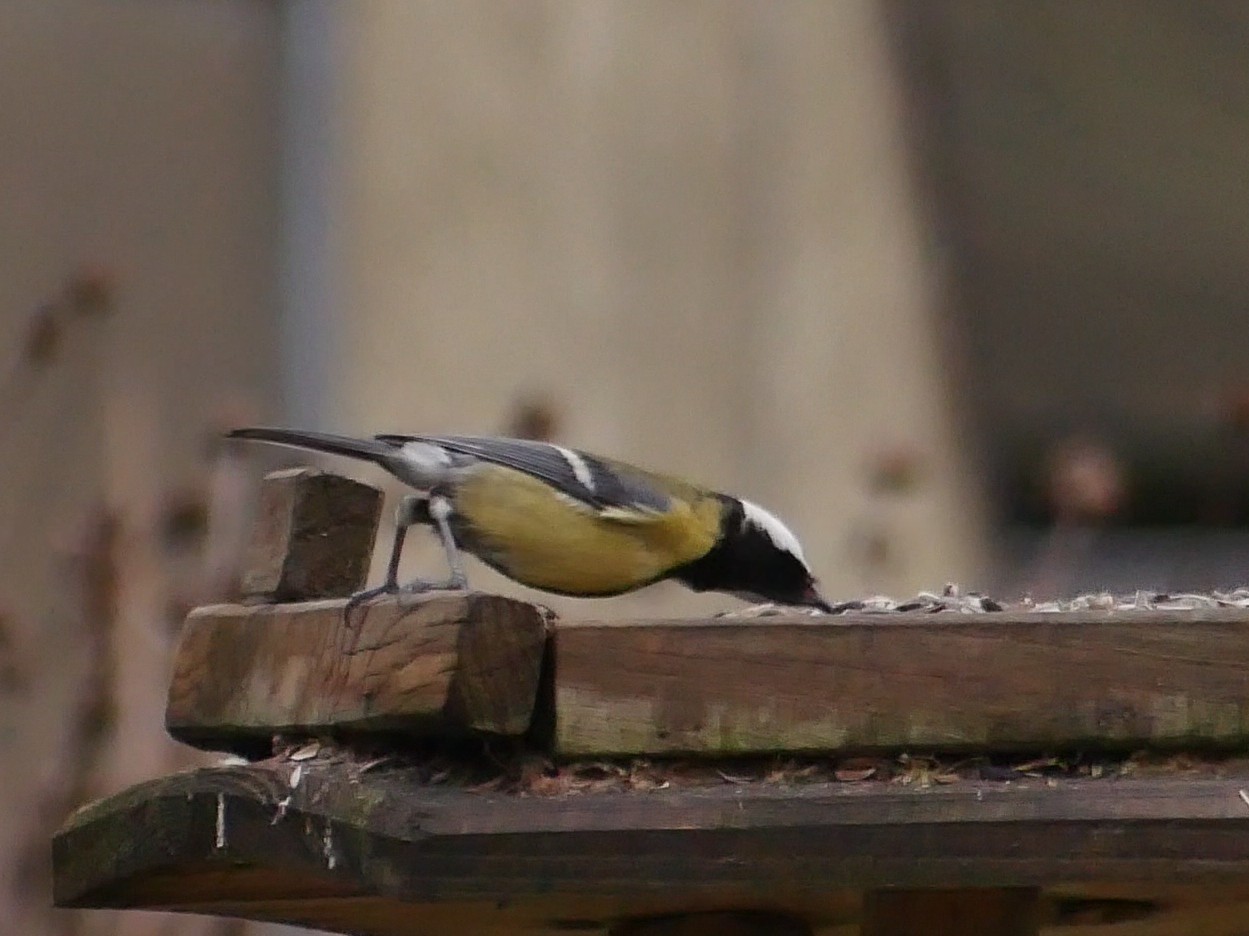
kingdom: Animalia
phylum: Chordata
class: Aves
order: Passeriformes
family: Paridae
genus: Parus
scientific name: Parus major
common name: Great tit
